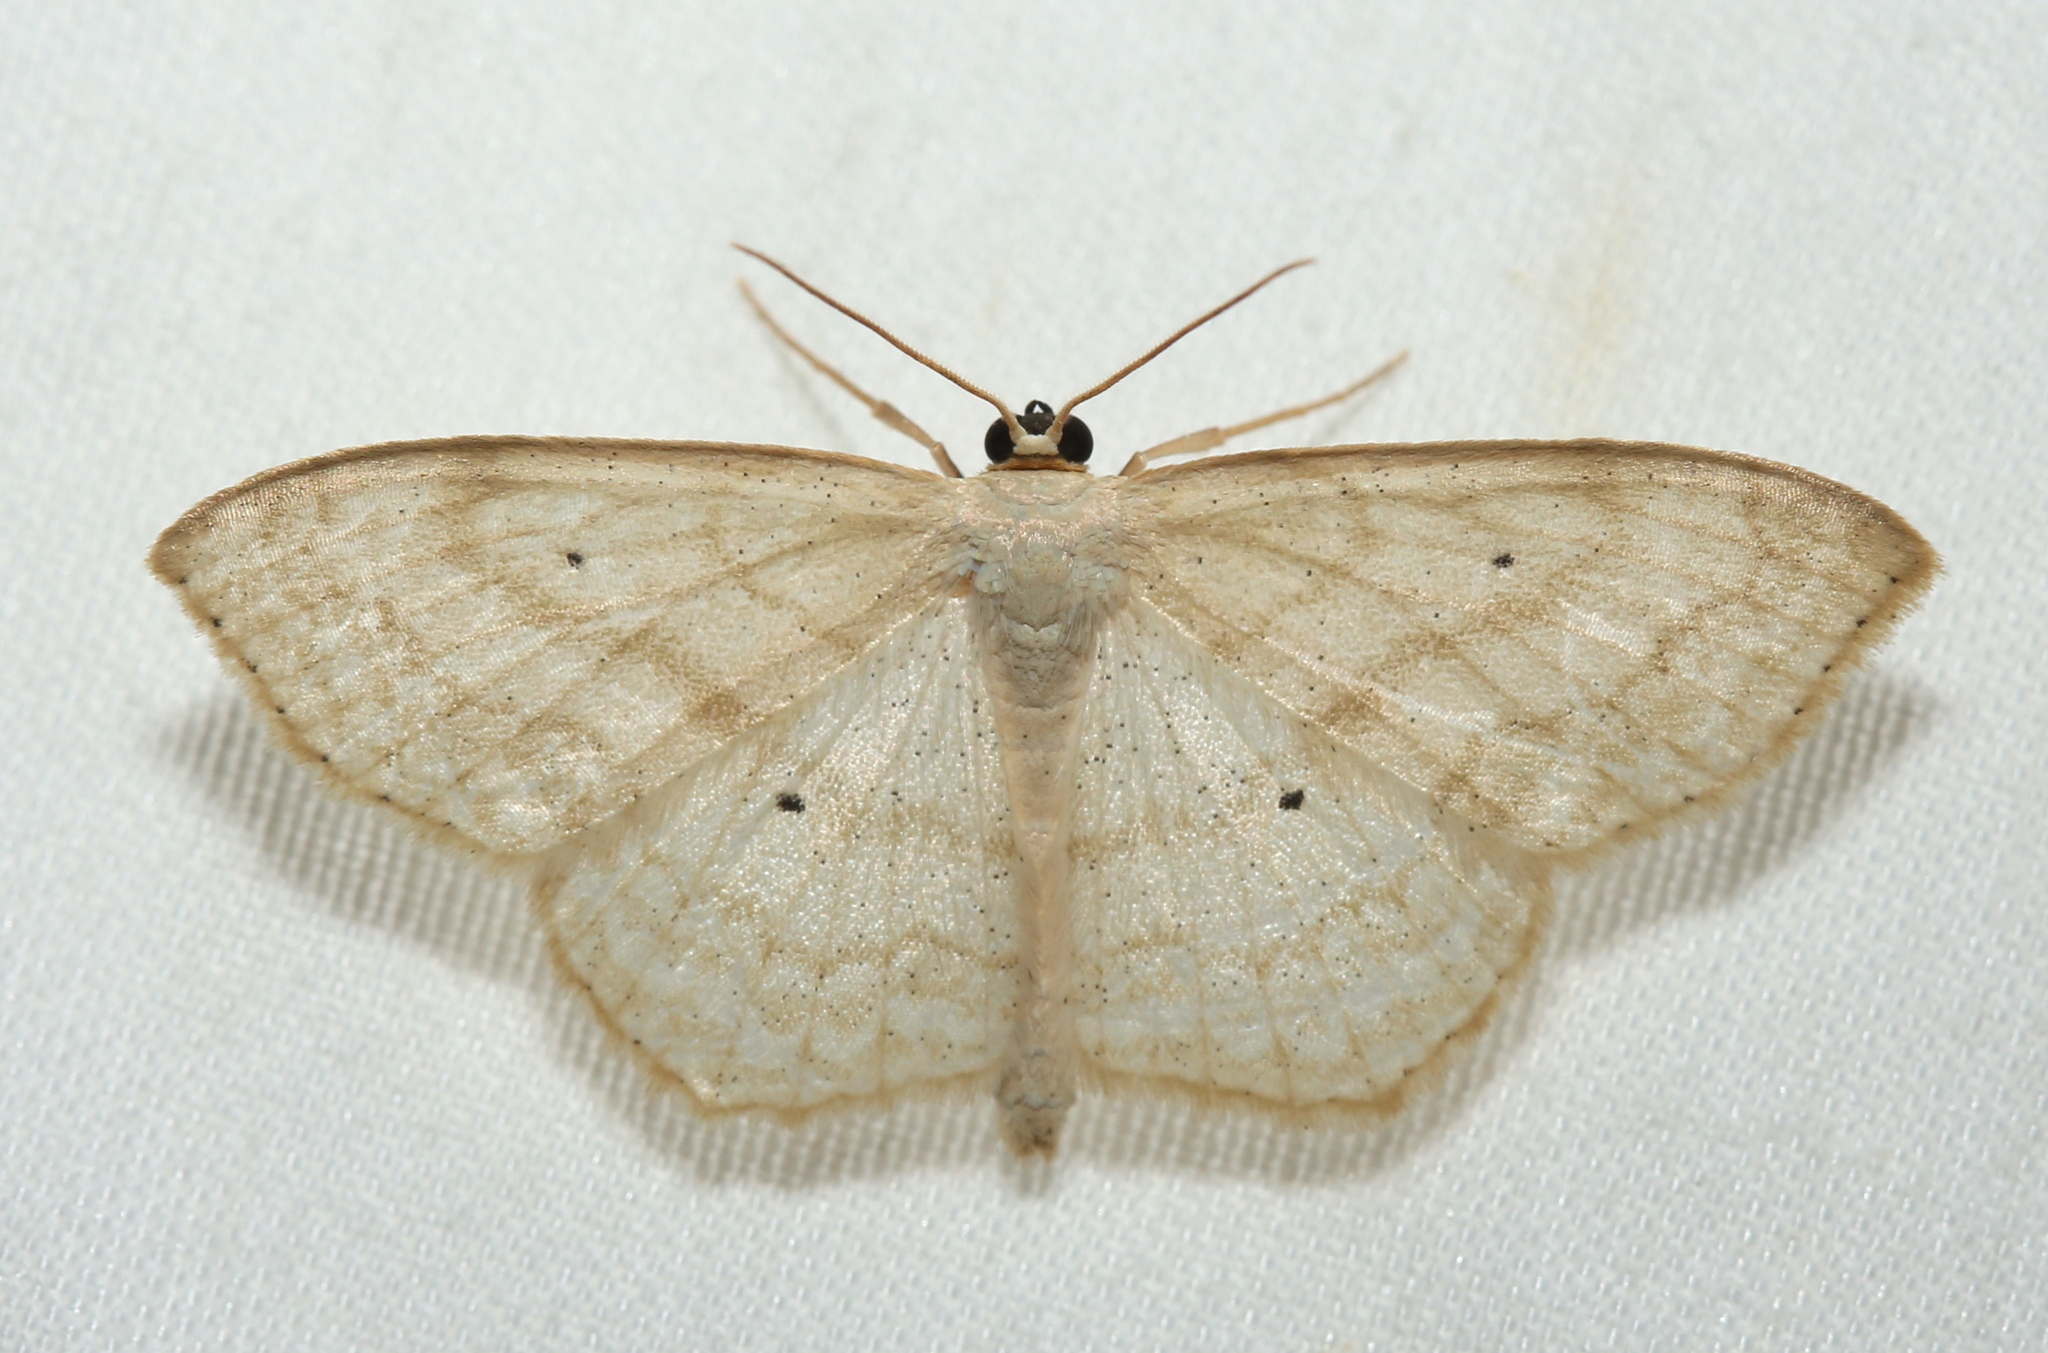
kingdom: Animalia
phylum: Arthropoda
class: Insecta
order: Lepidoptera
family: Geometridae
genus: Scopula
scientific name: Scopula limboundata
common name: Large lace border
